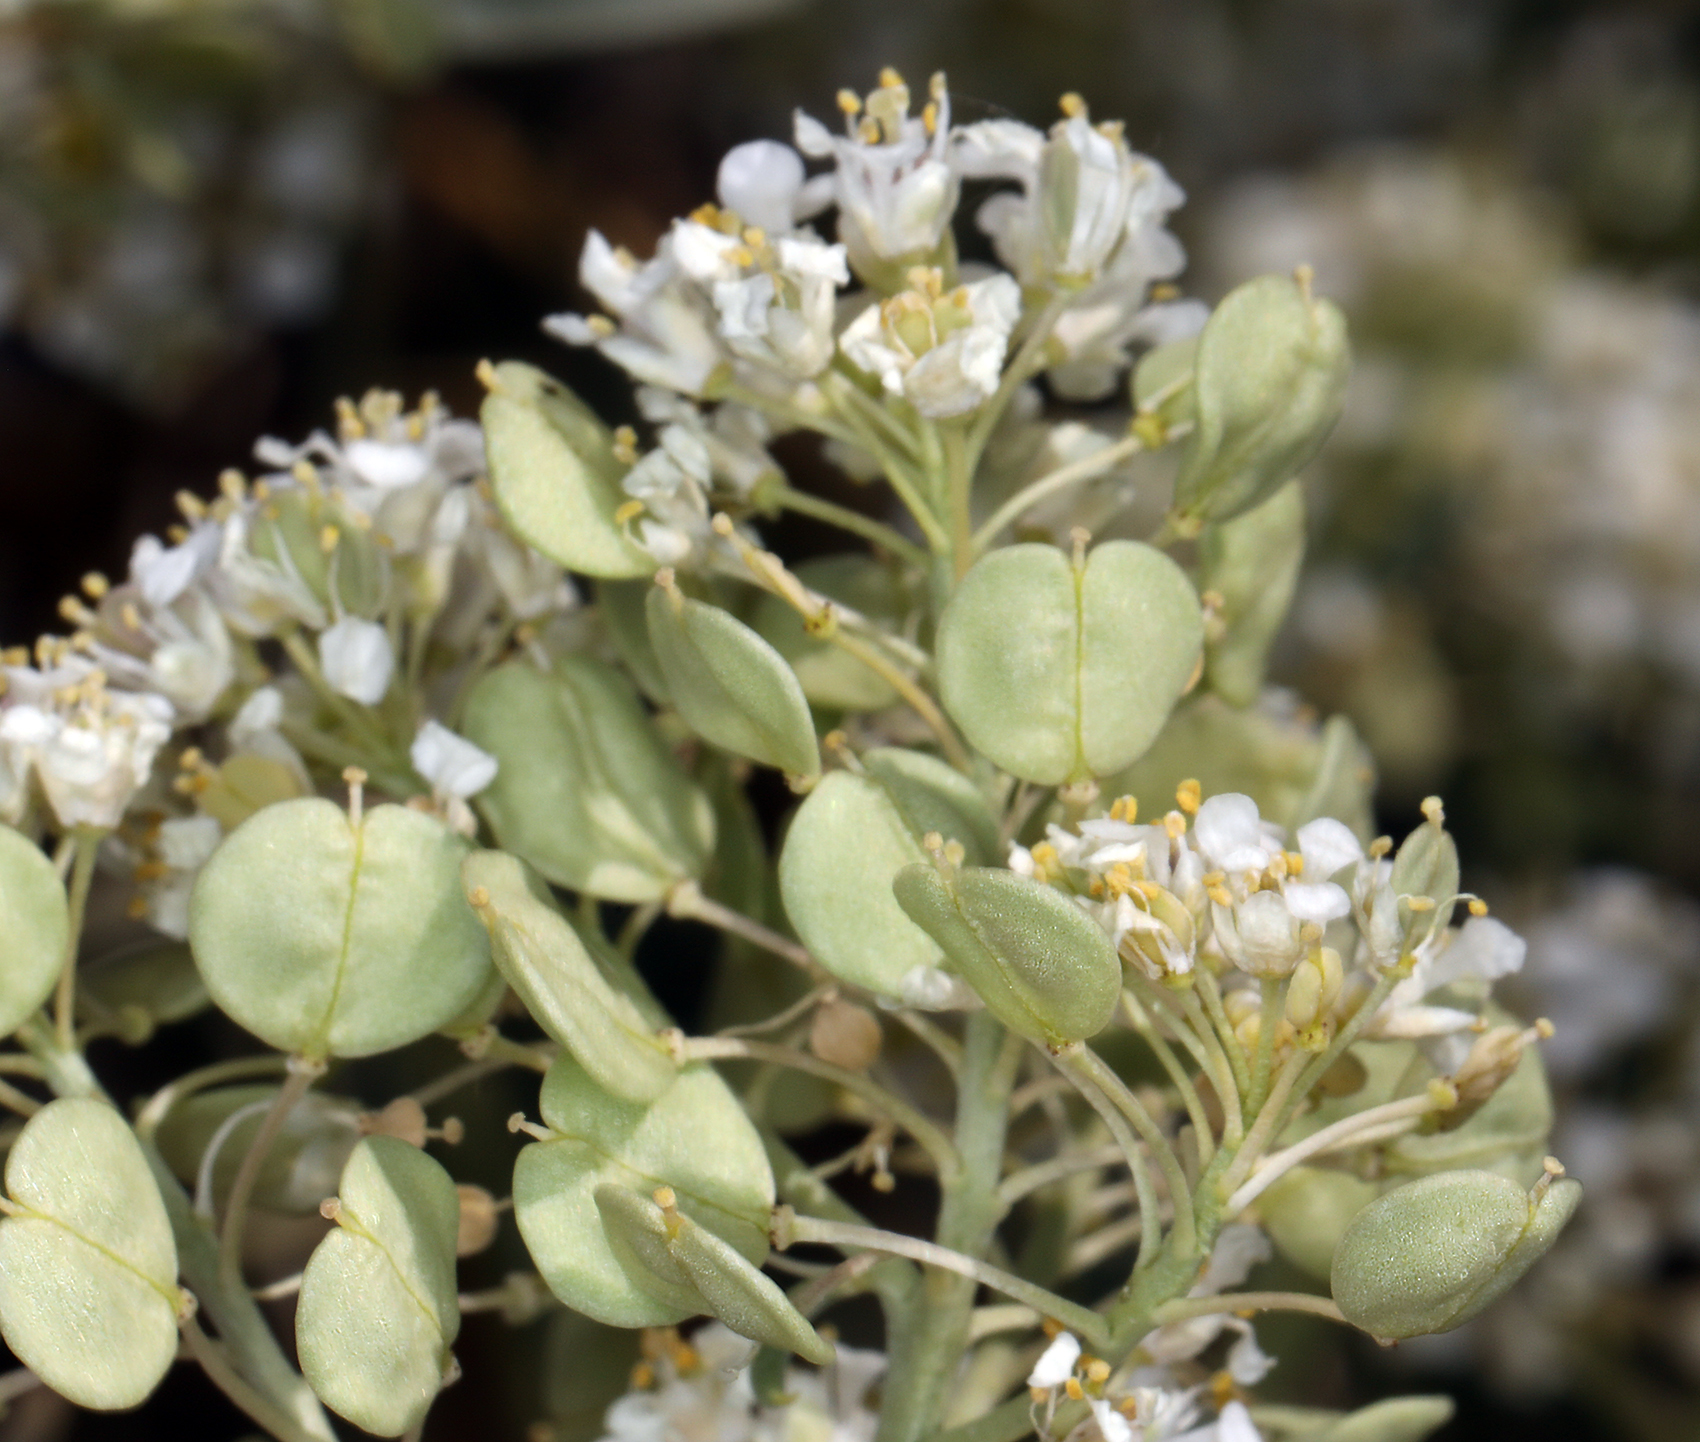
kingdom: Plantae
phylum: Tracheophyta
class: Magnoliopsida
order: Brassicales
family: Brassicaceae
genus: Lepidium
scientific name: Lepidium fremontii
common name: Fremont's pepperwort
